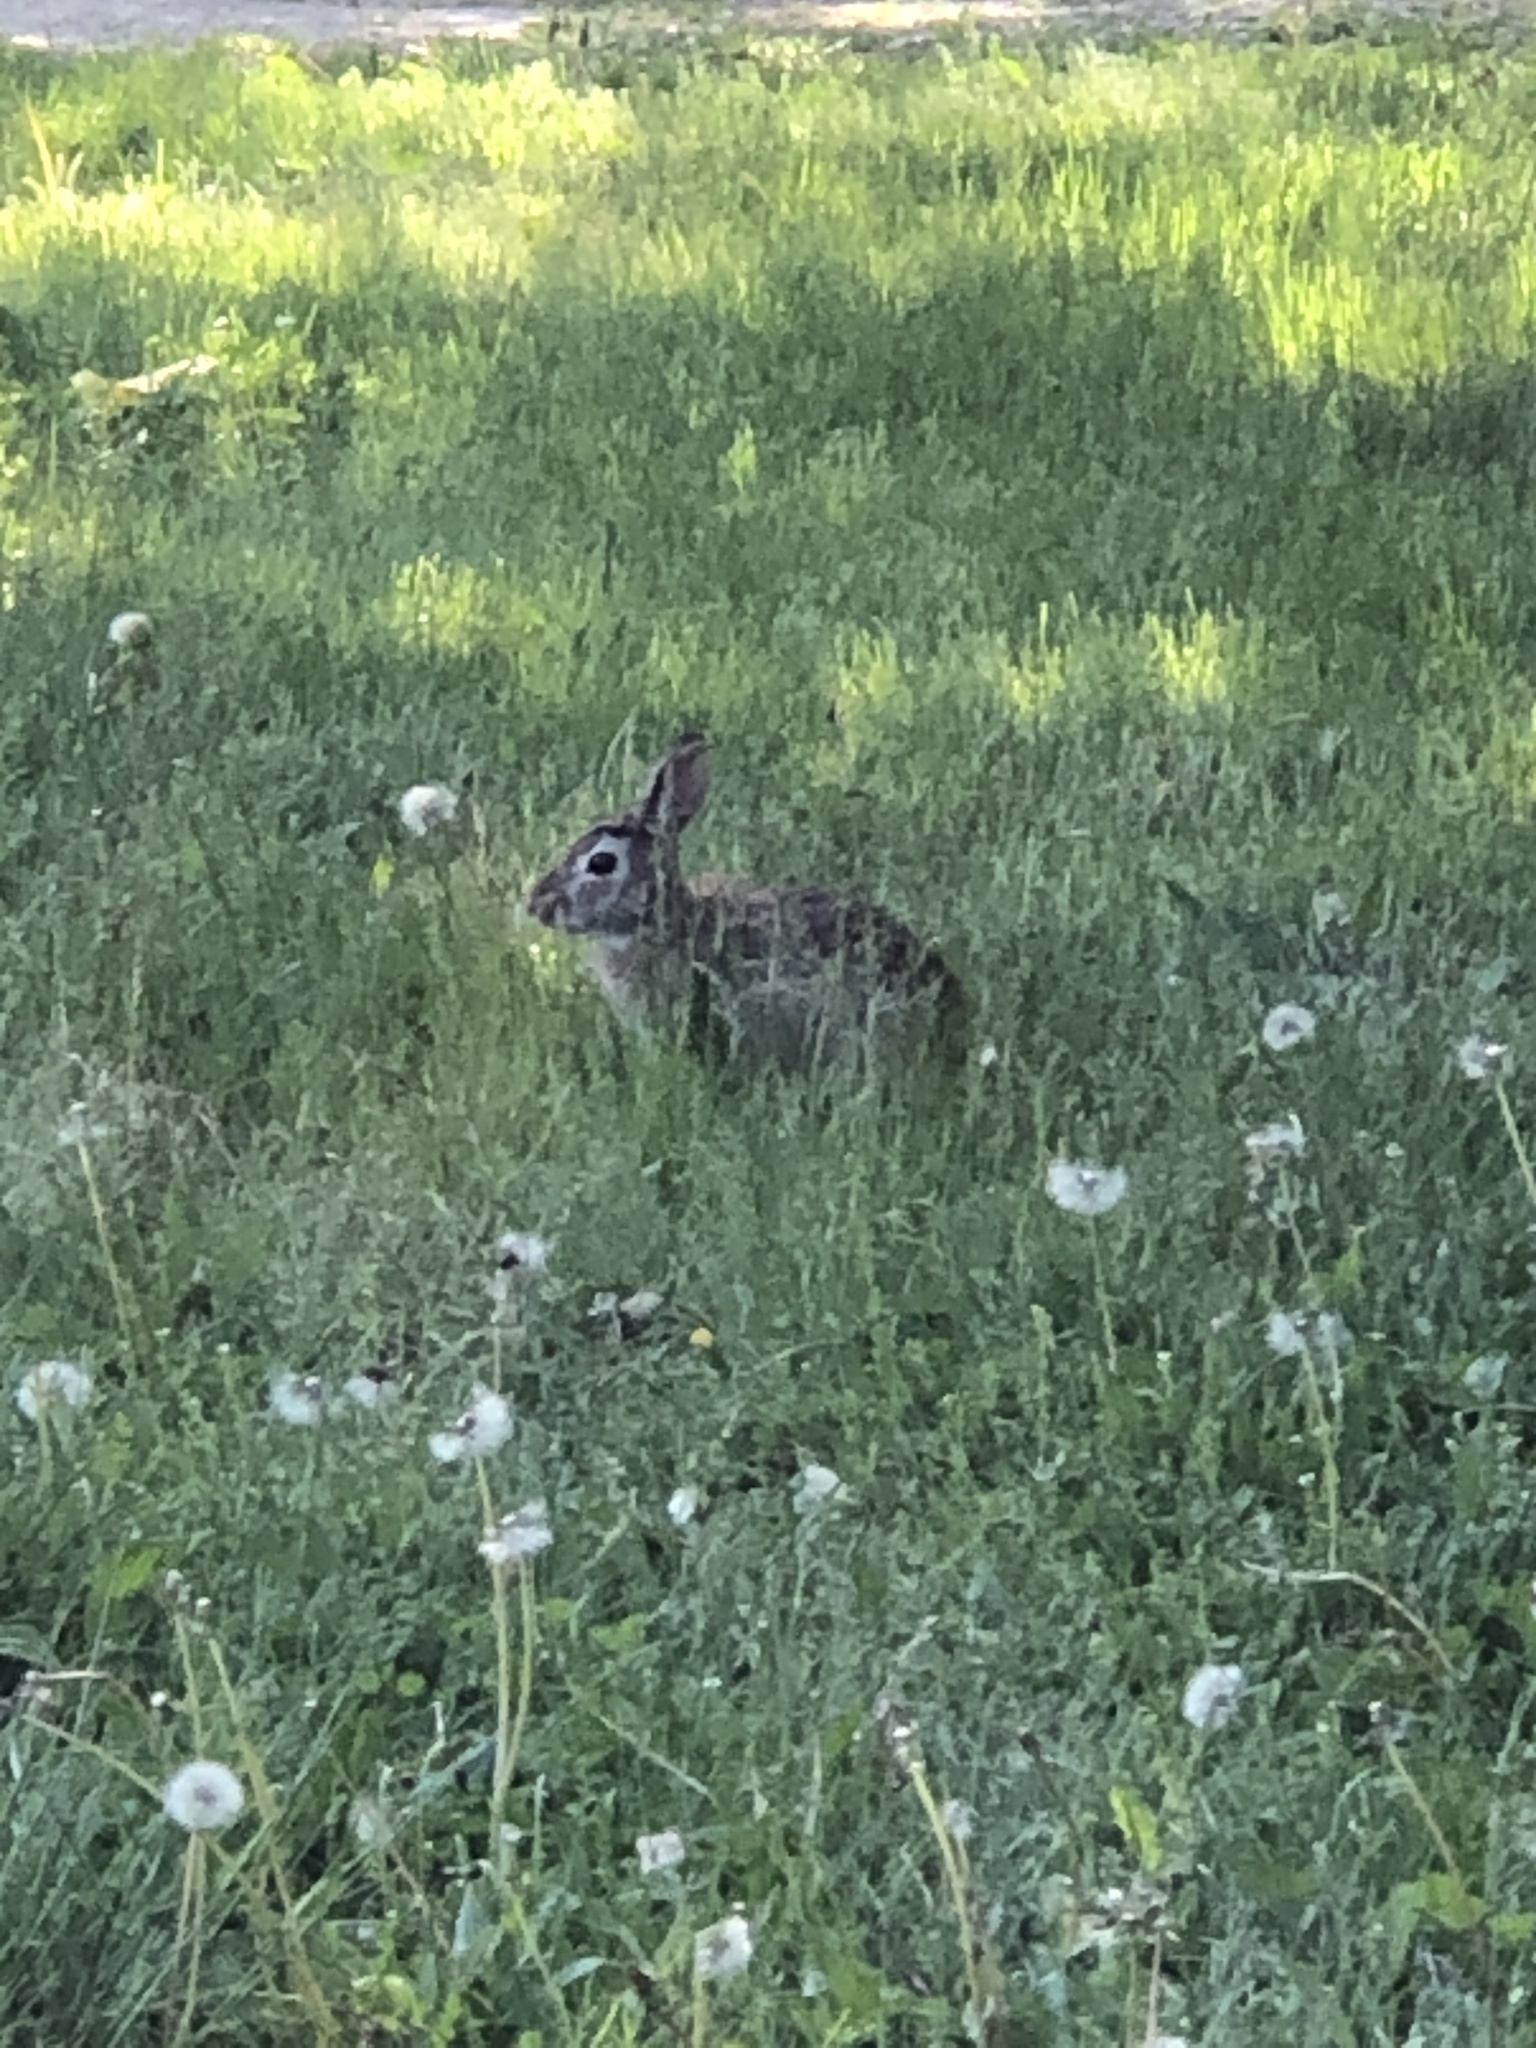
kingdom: Animalia
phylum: Chordata
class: Mammalia
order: Lagomorpha
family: Leporidae
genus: Sylvilagus
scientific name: Sylvilagus floridanus
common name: Eastern cottontail
